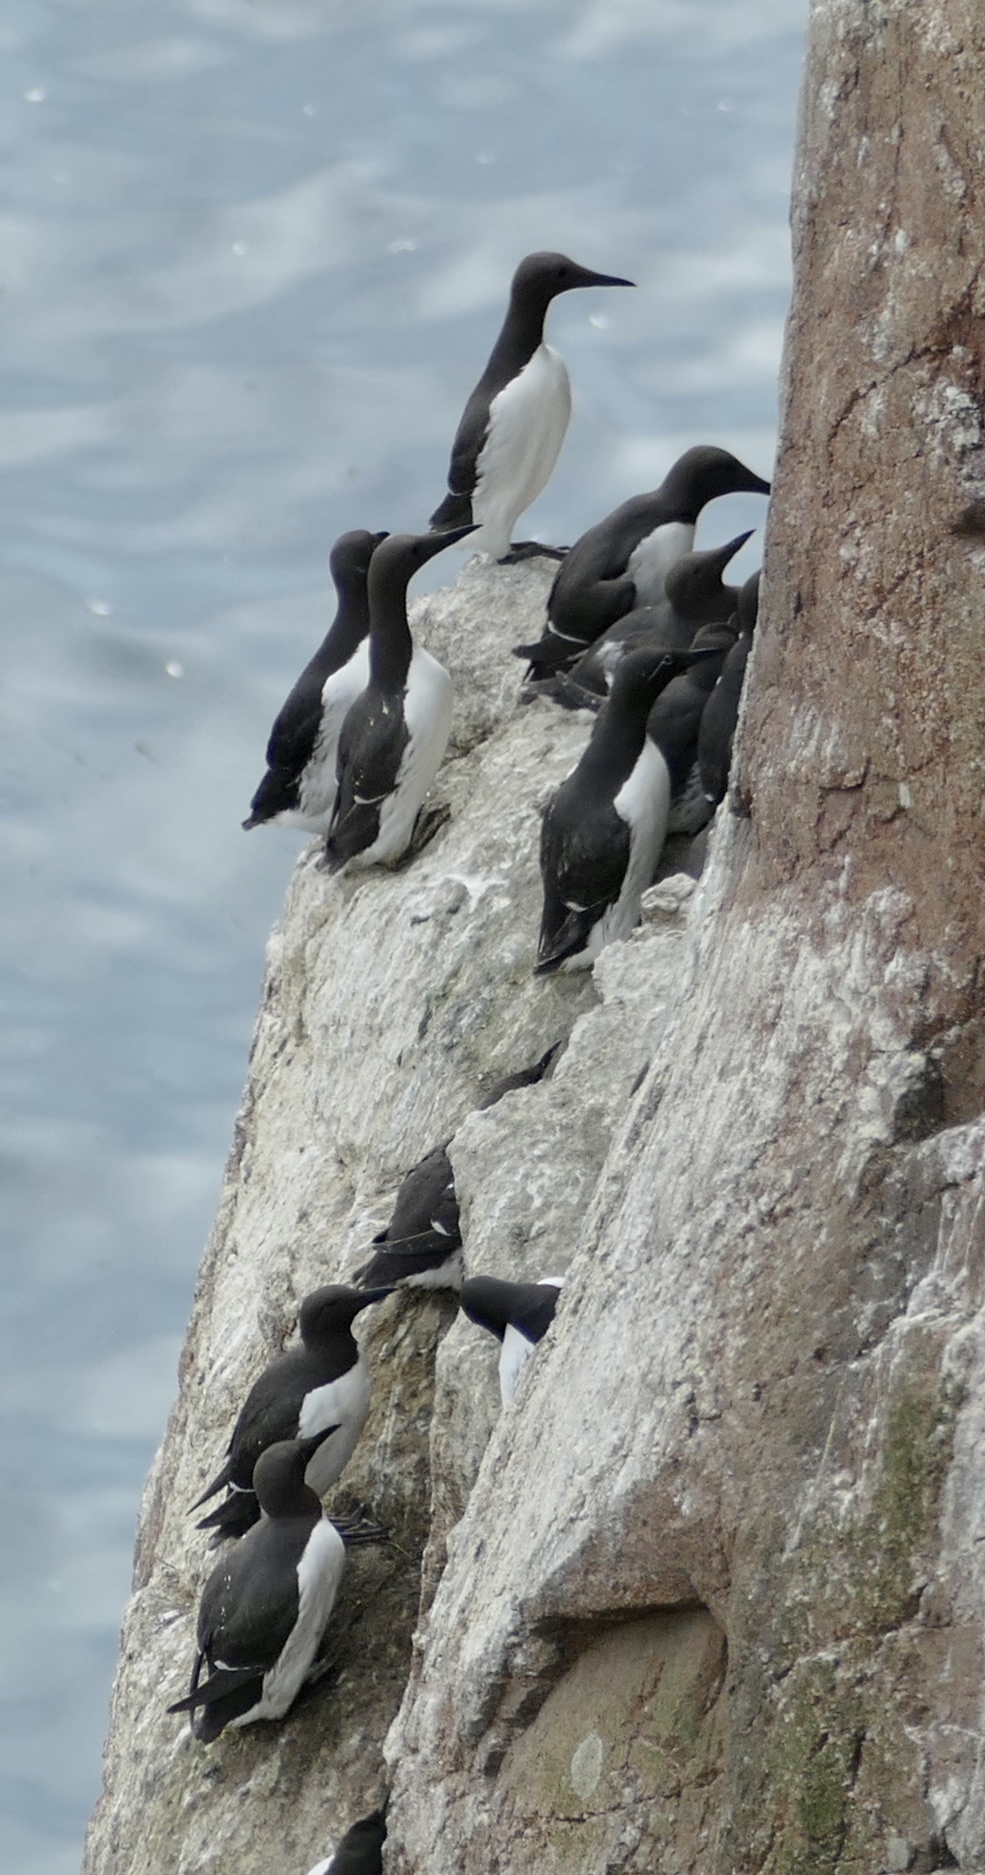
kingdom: Animalia
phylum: Chordata
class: Aves
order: Charadriiformes
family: Alcidae
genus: Uria
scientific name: Uria aalge
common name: Common murre
